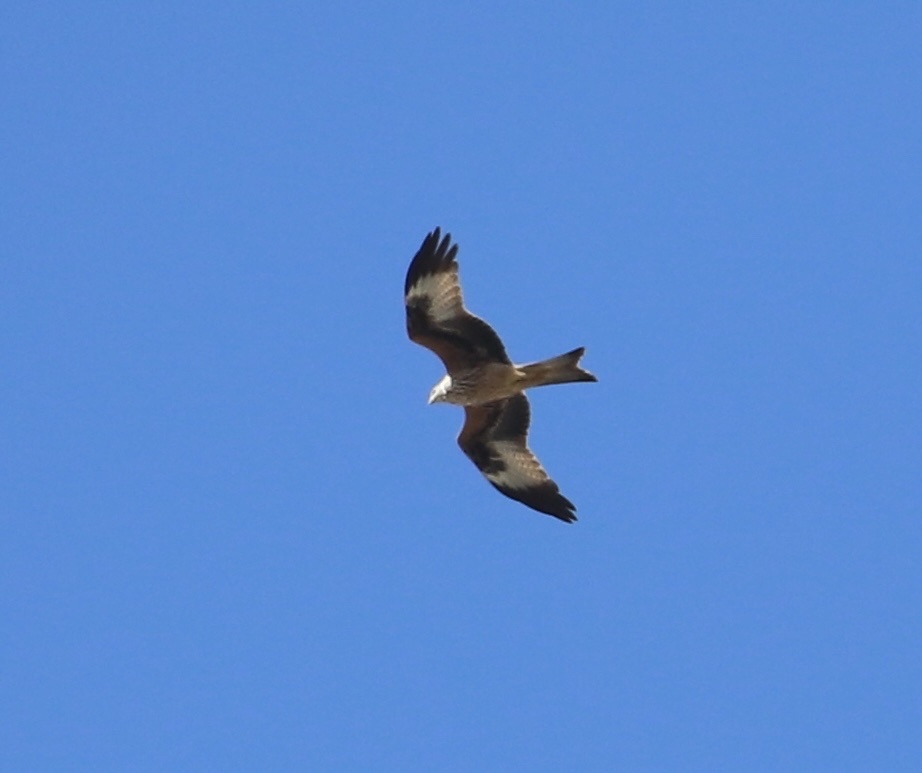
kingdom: Animalia
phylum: Chordata
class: Aves
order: Accipitriformes
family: Accipitridae
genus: Milvus
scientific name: Milvus milvus
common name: Red kite
